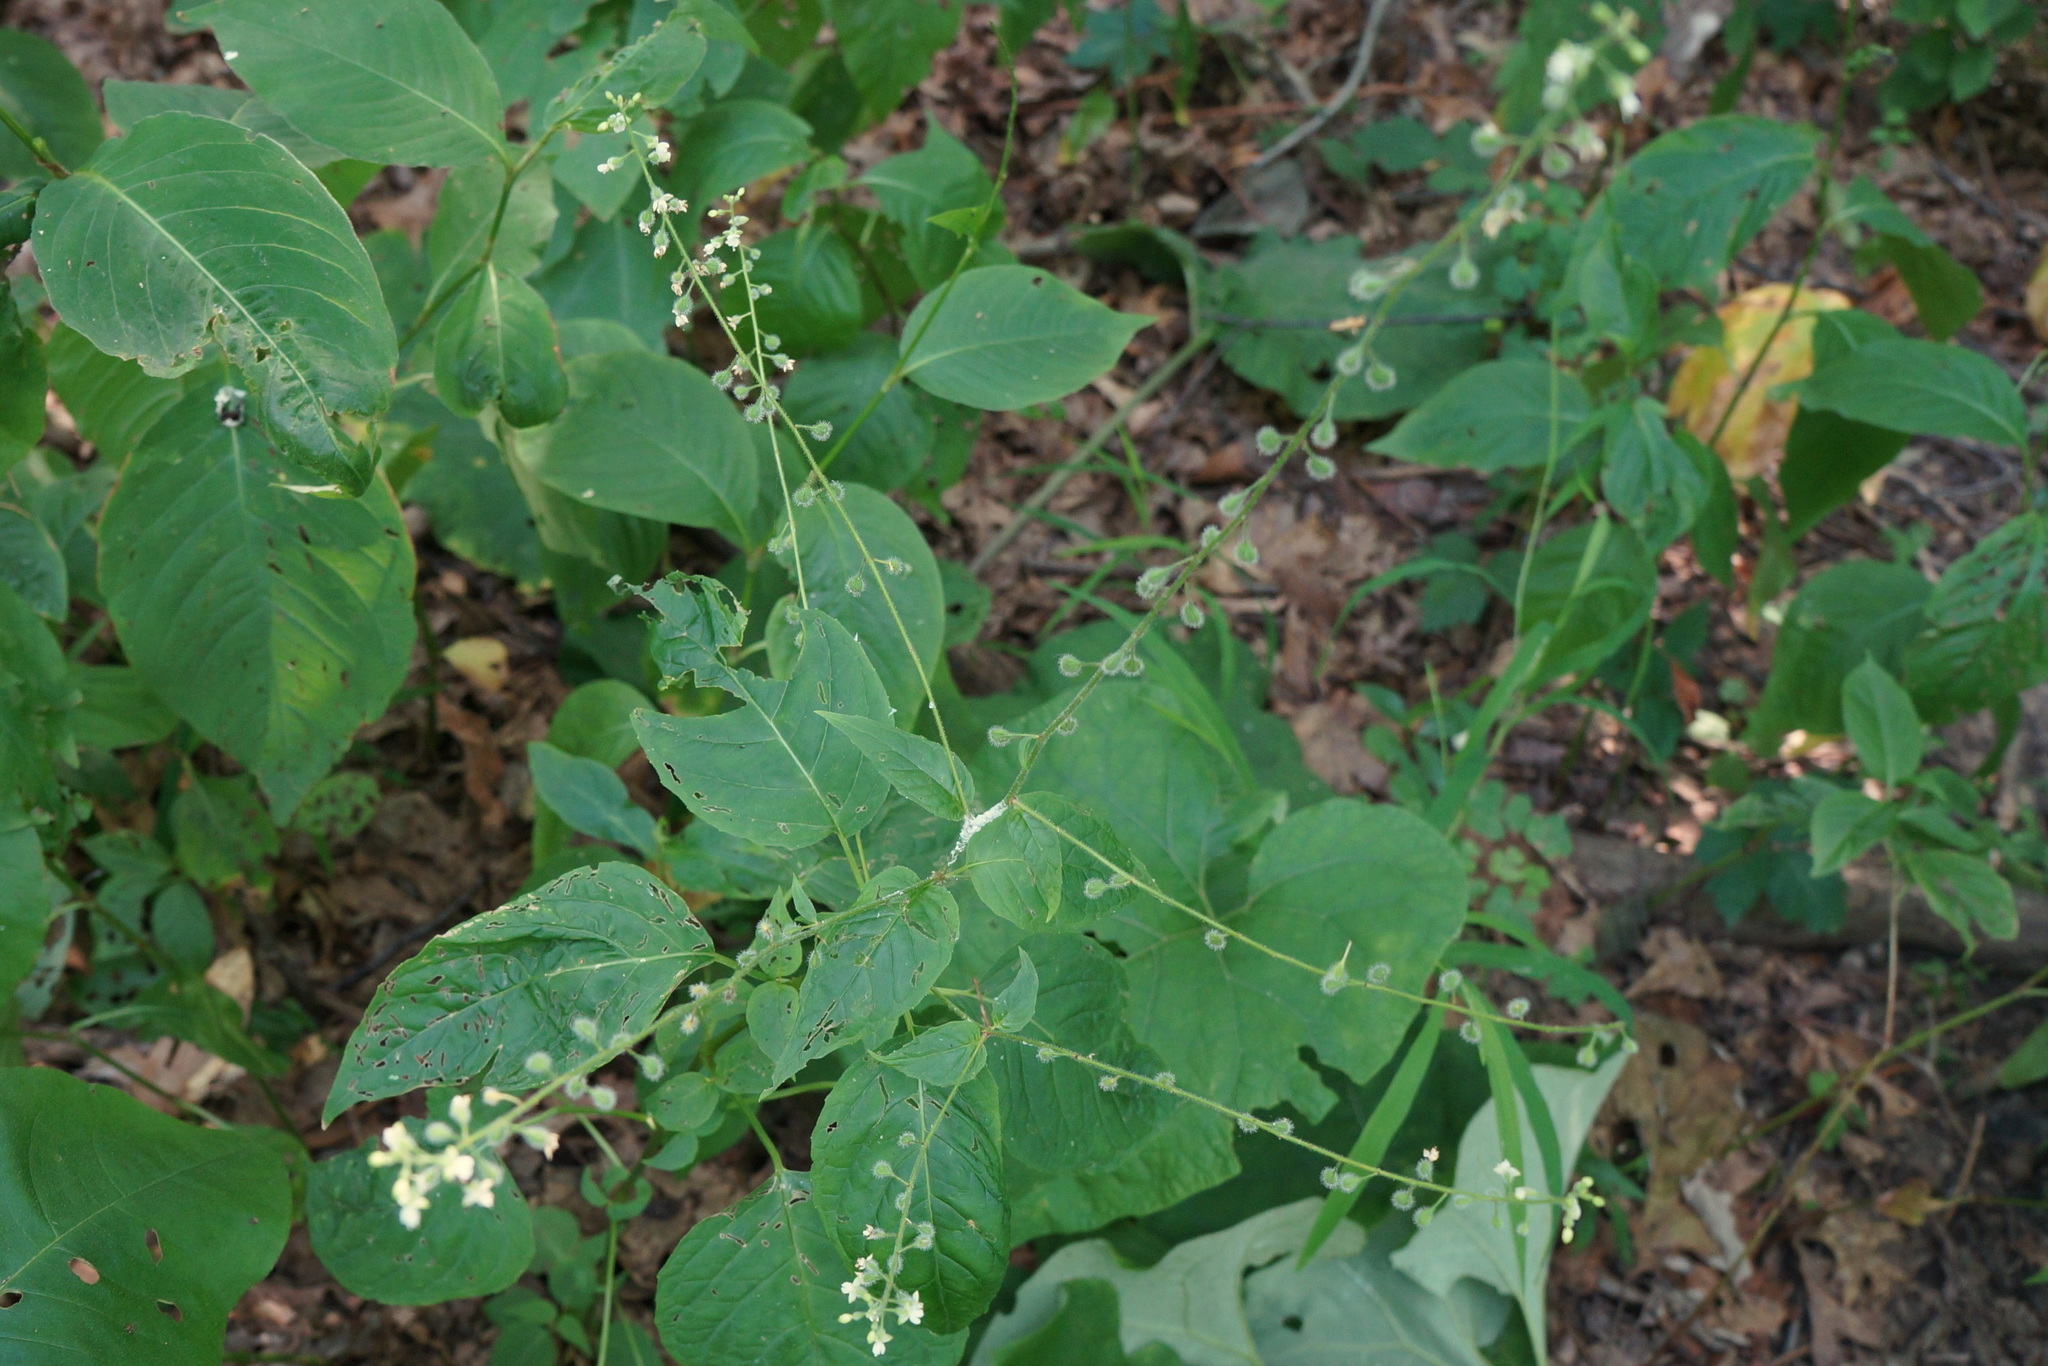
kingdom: Plantae
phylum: Tracheophyta
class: Magnoliopsida
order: Myrtales
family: Onagraceae
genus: Circaea
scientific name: Circaea canadensis
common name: Broad-leaved enchanter's nightshade
